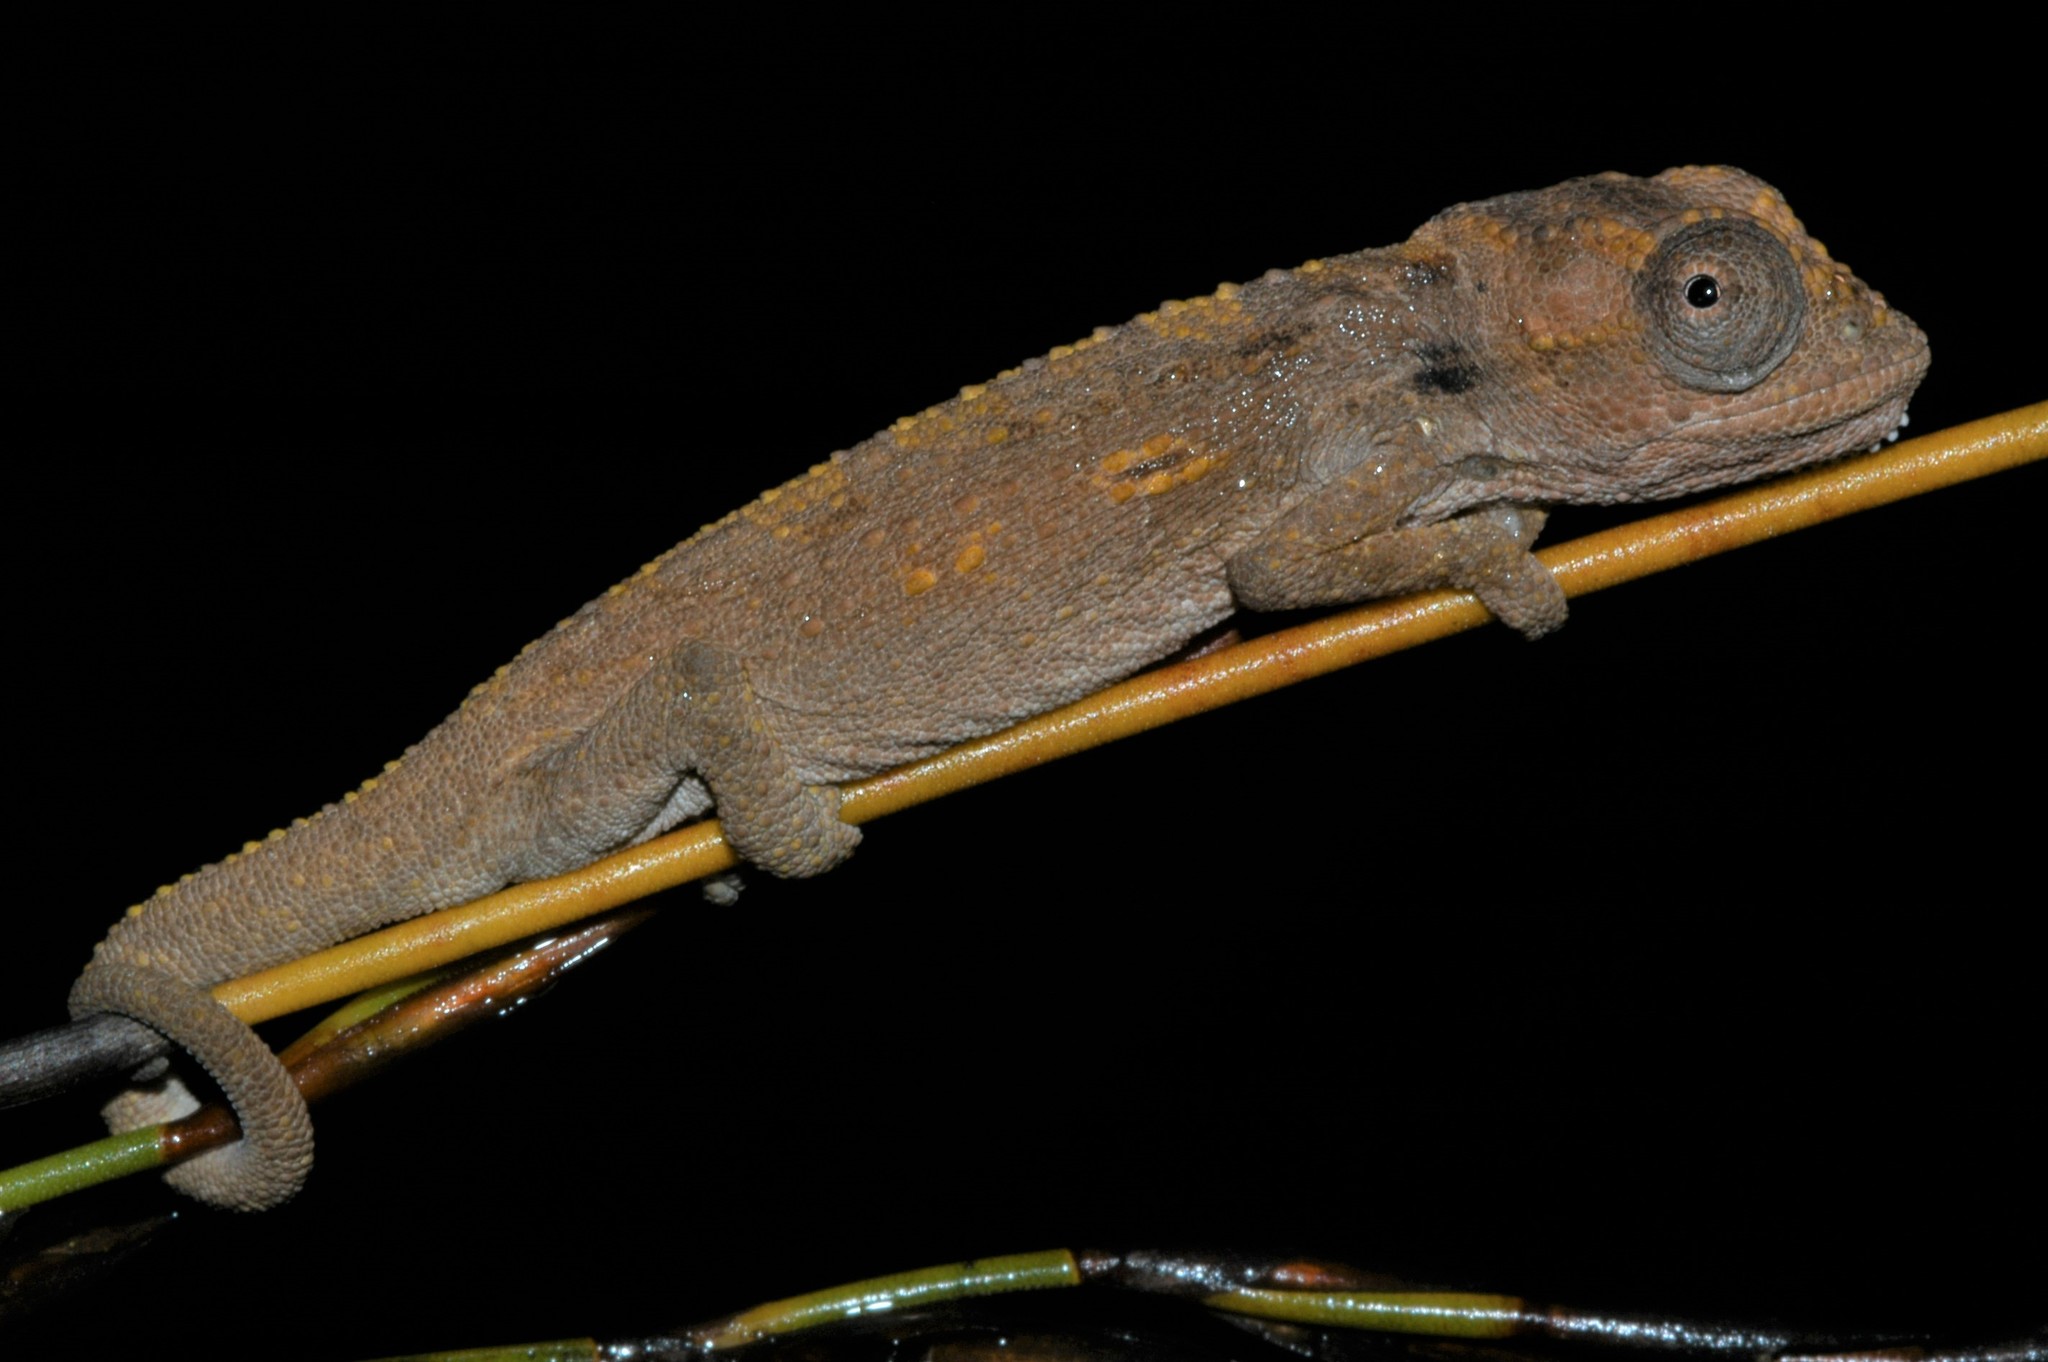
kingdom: Animalia
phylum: Chordata
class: Squamata
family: Chamaeleonidae
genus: Bradypodion
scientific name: Bradypodion baviaanense
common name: Baviaans dwarf chameleon
